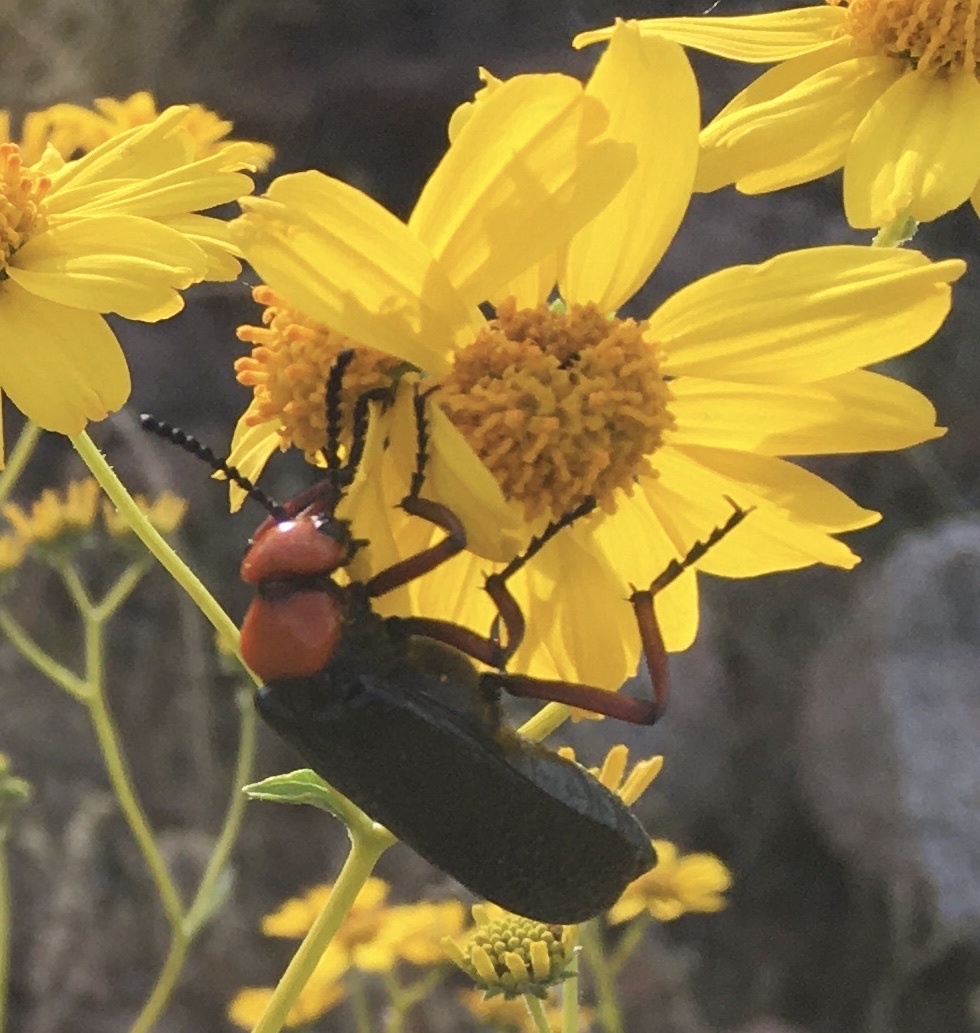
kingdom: Animalia
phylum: Arthropoda
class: Insecta
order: Coleoptera
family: Meloidae
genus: Lytta
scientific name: Lytta magister
